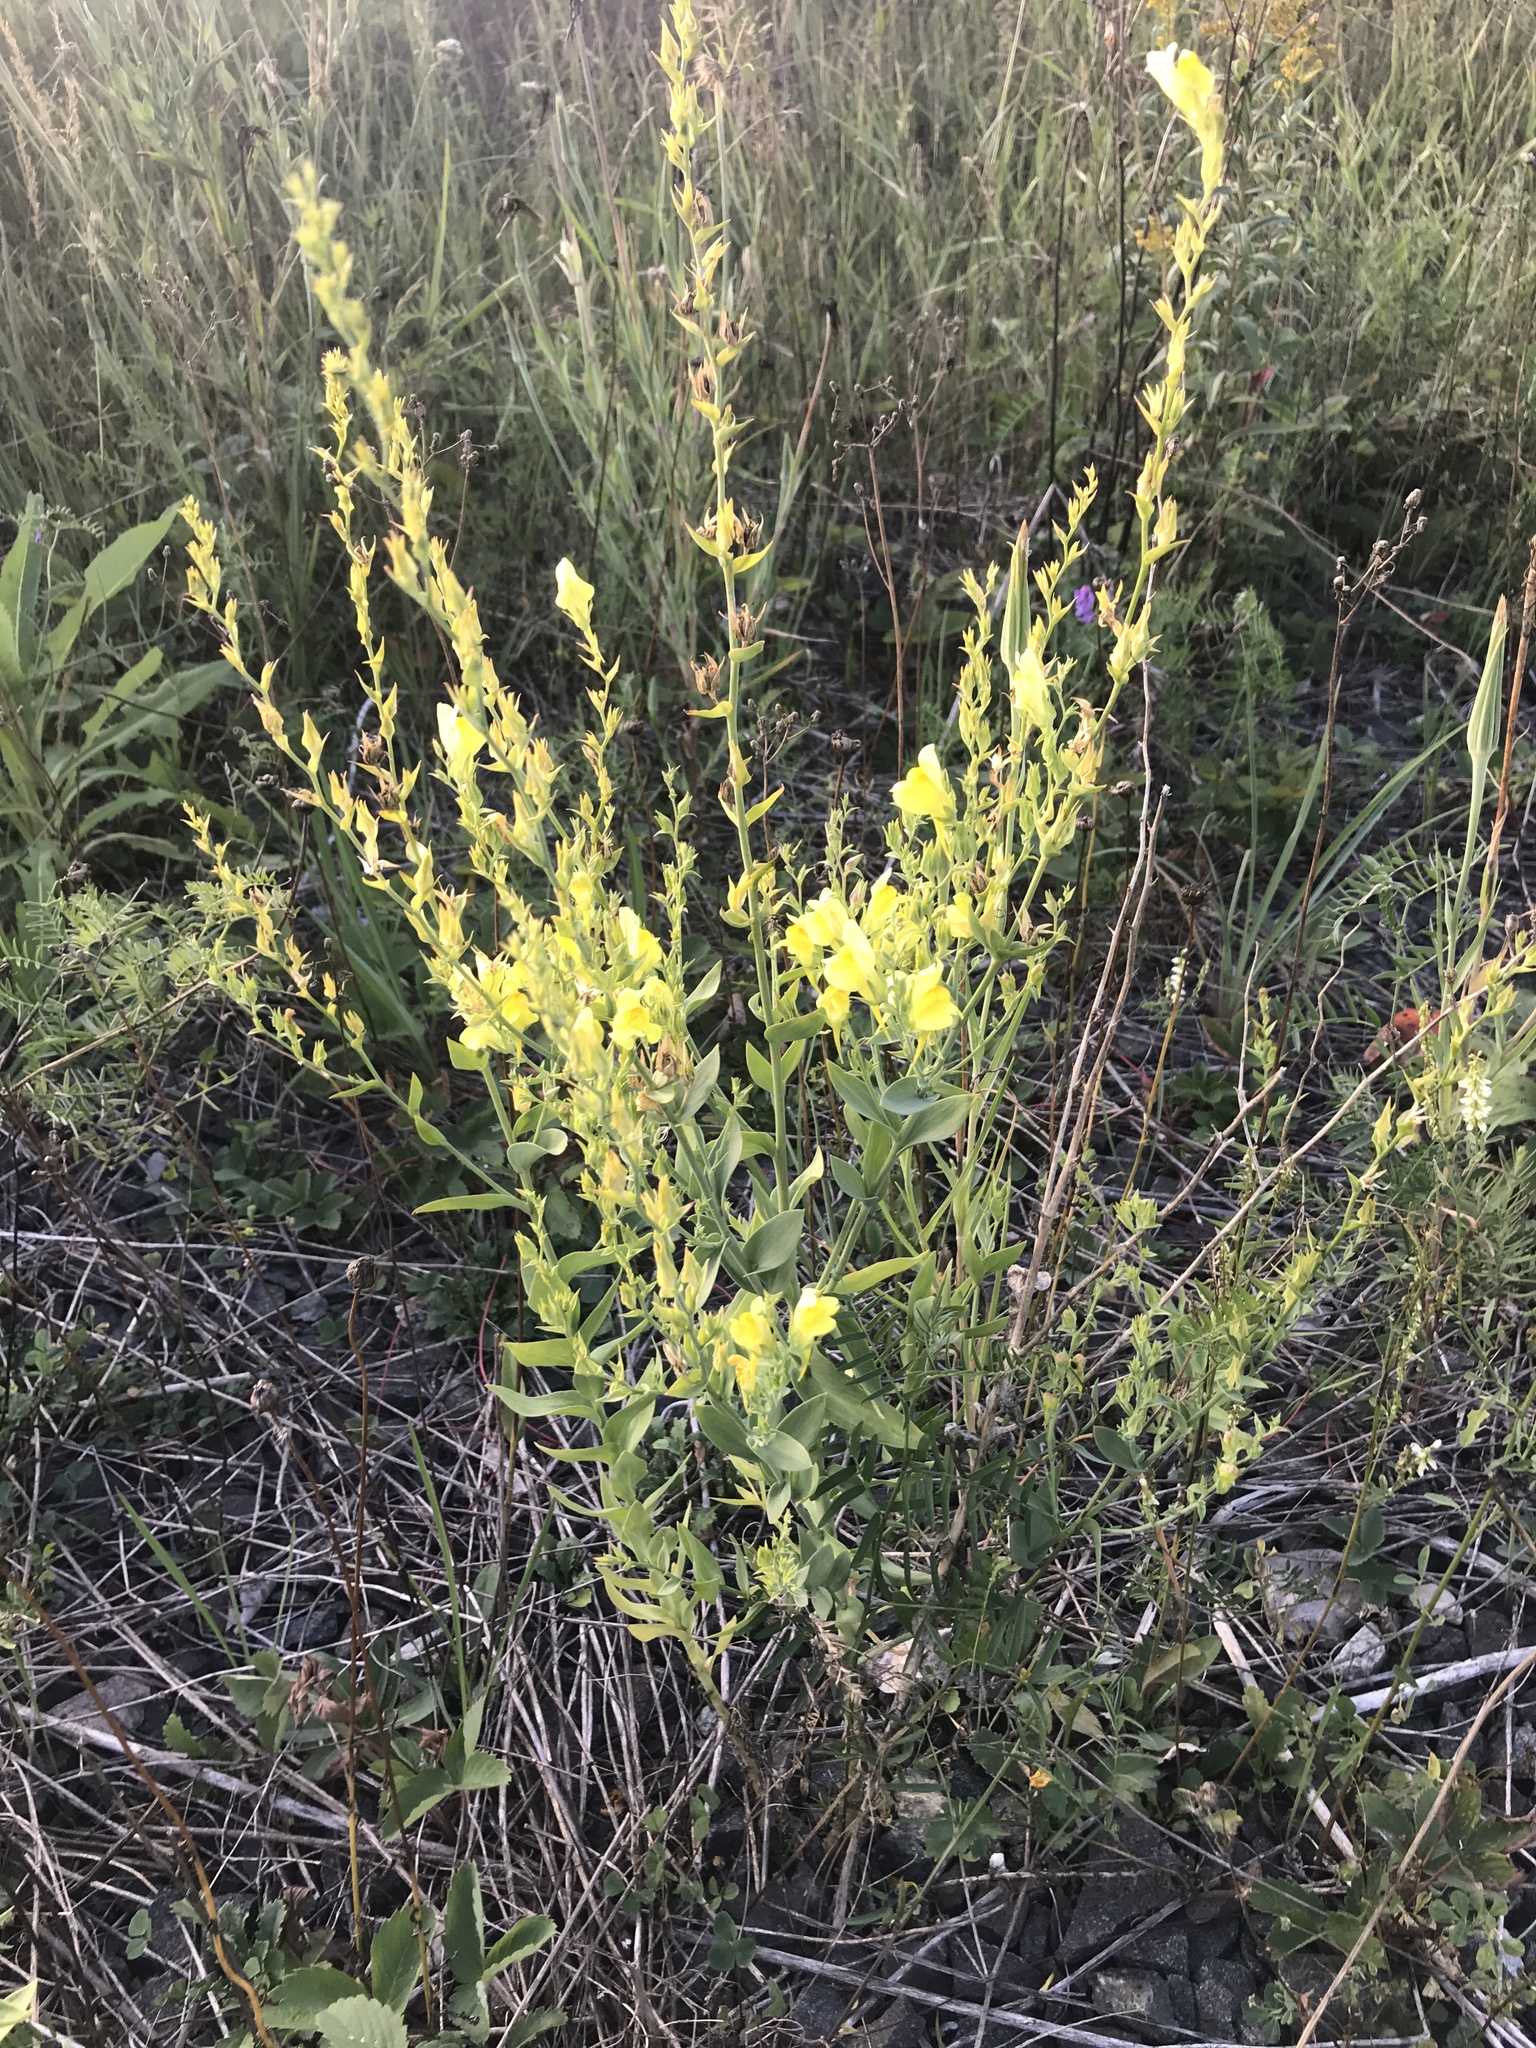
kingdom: Plantae
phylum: Tracheophyta
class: Magnoliopsida
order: Lamiales
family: Plantaginaceae
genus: Linaria
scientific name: Linaria dalmatica
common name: Dalmatian toadflax
